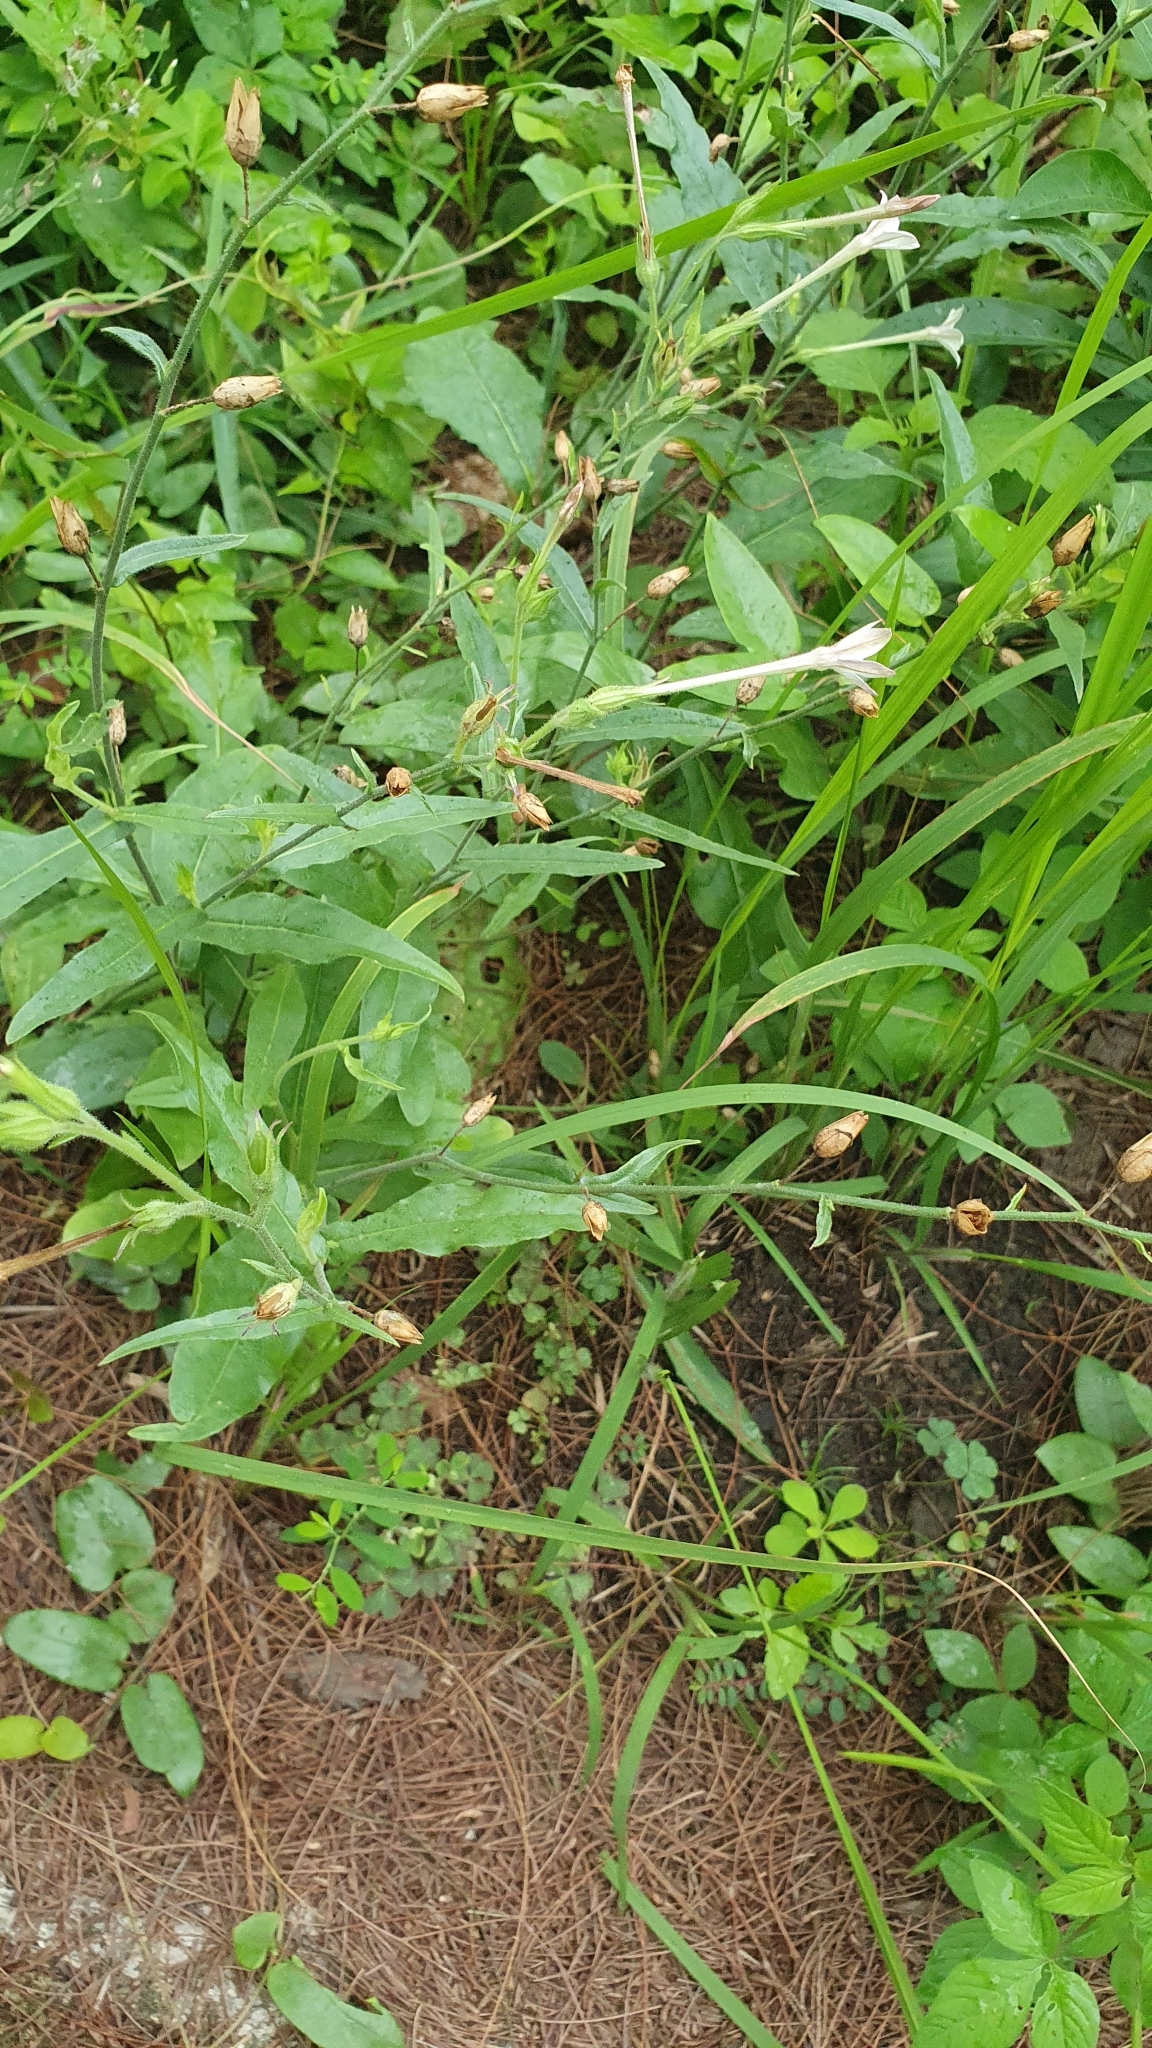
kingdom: Plantae
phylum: Tracheophyta
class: Magnoliopsida
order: Solanales
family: Solanaceae
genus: Nicotiana
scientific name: Nicotiana plumbaginifolia
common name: Tex-mex tobacco
